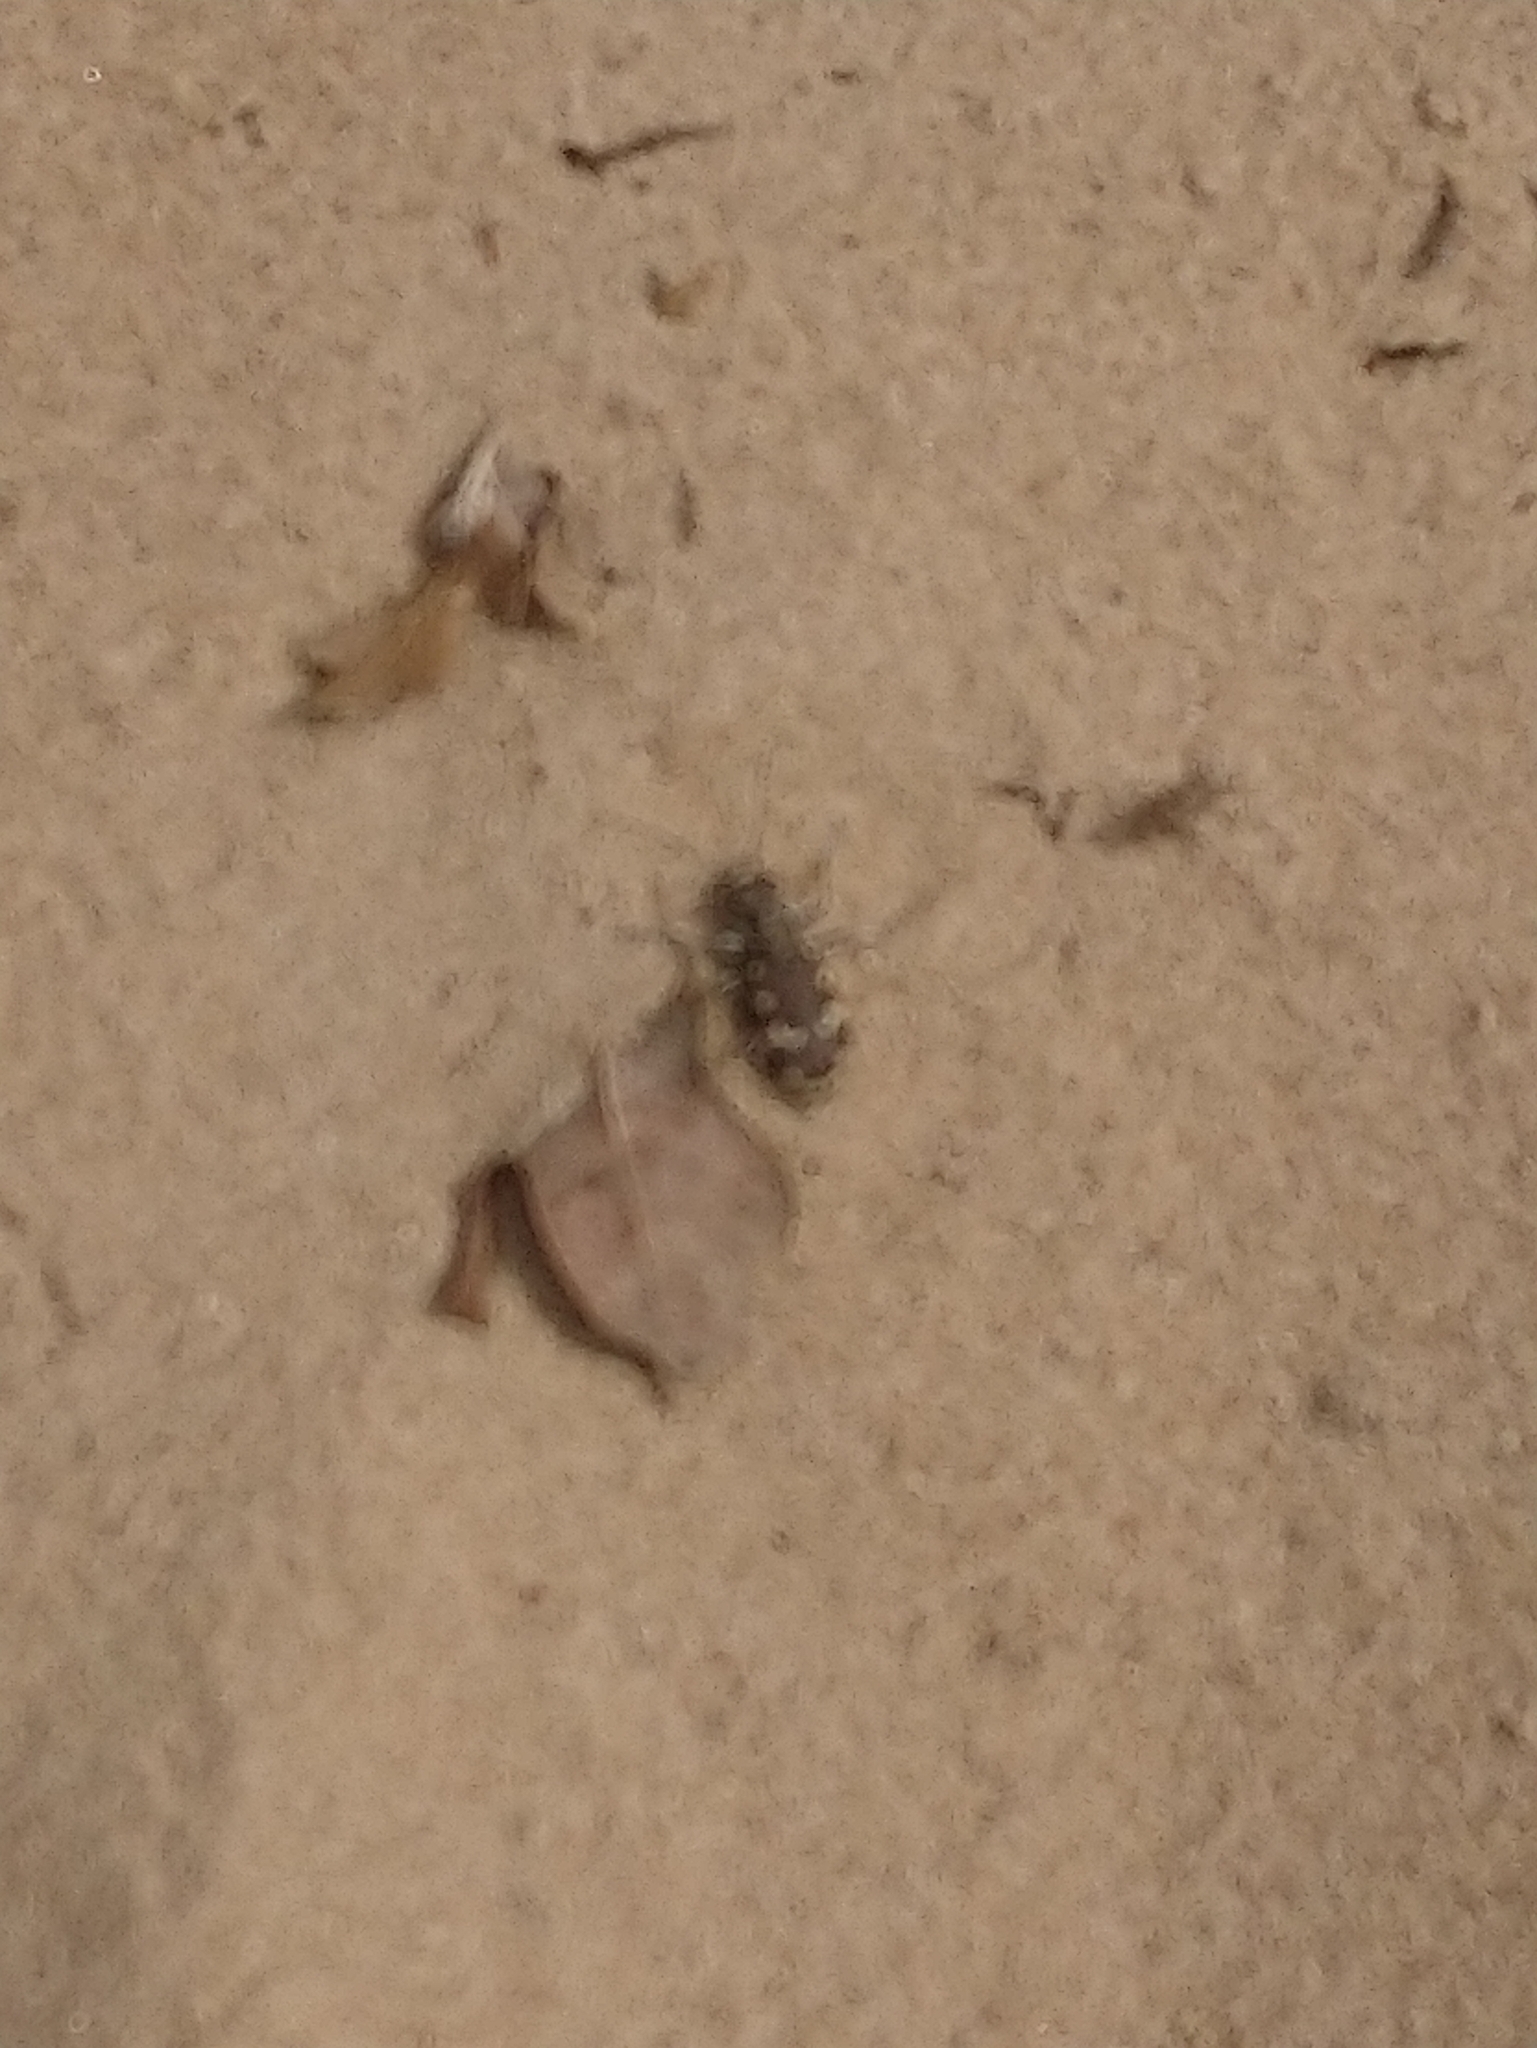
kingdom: Animalia
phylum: Arthropoda
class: Insecta
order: Coleoptera
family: Carabidae
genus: Cicindela
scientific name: Cicindela hybrida
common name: Northern dune tiger beetle
